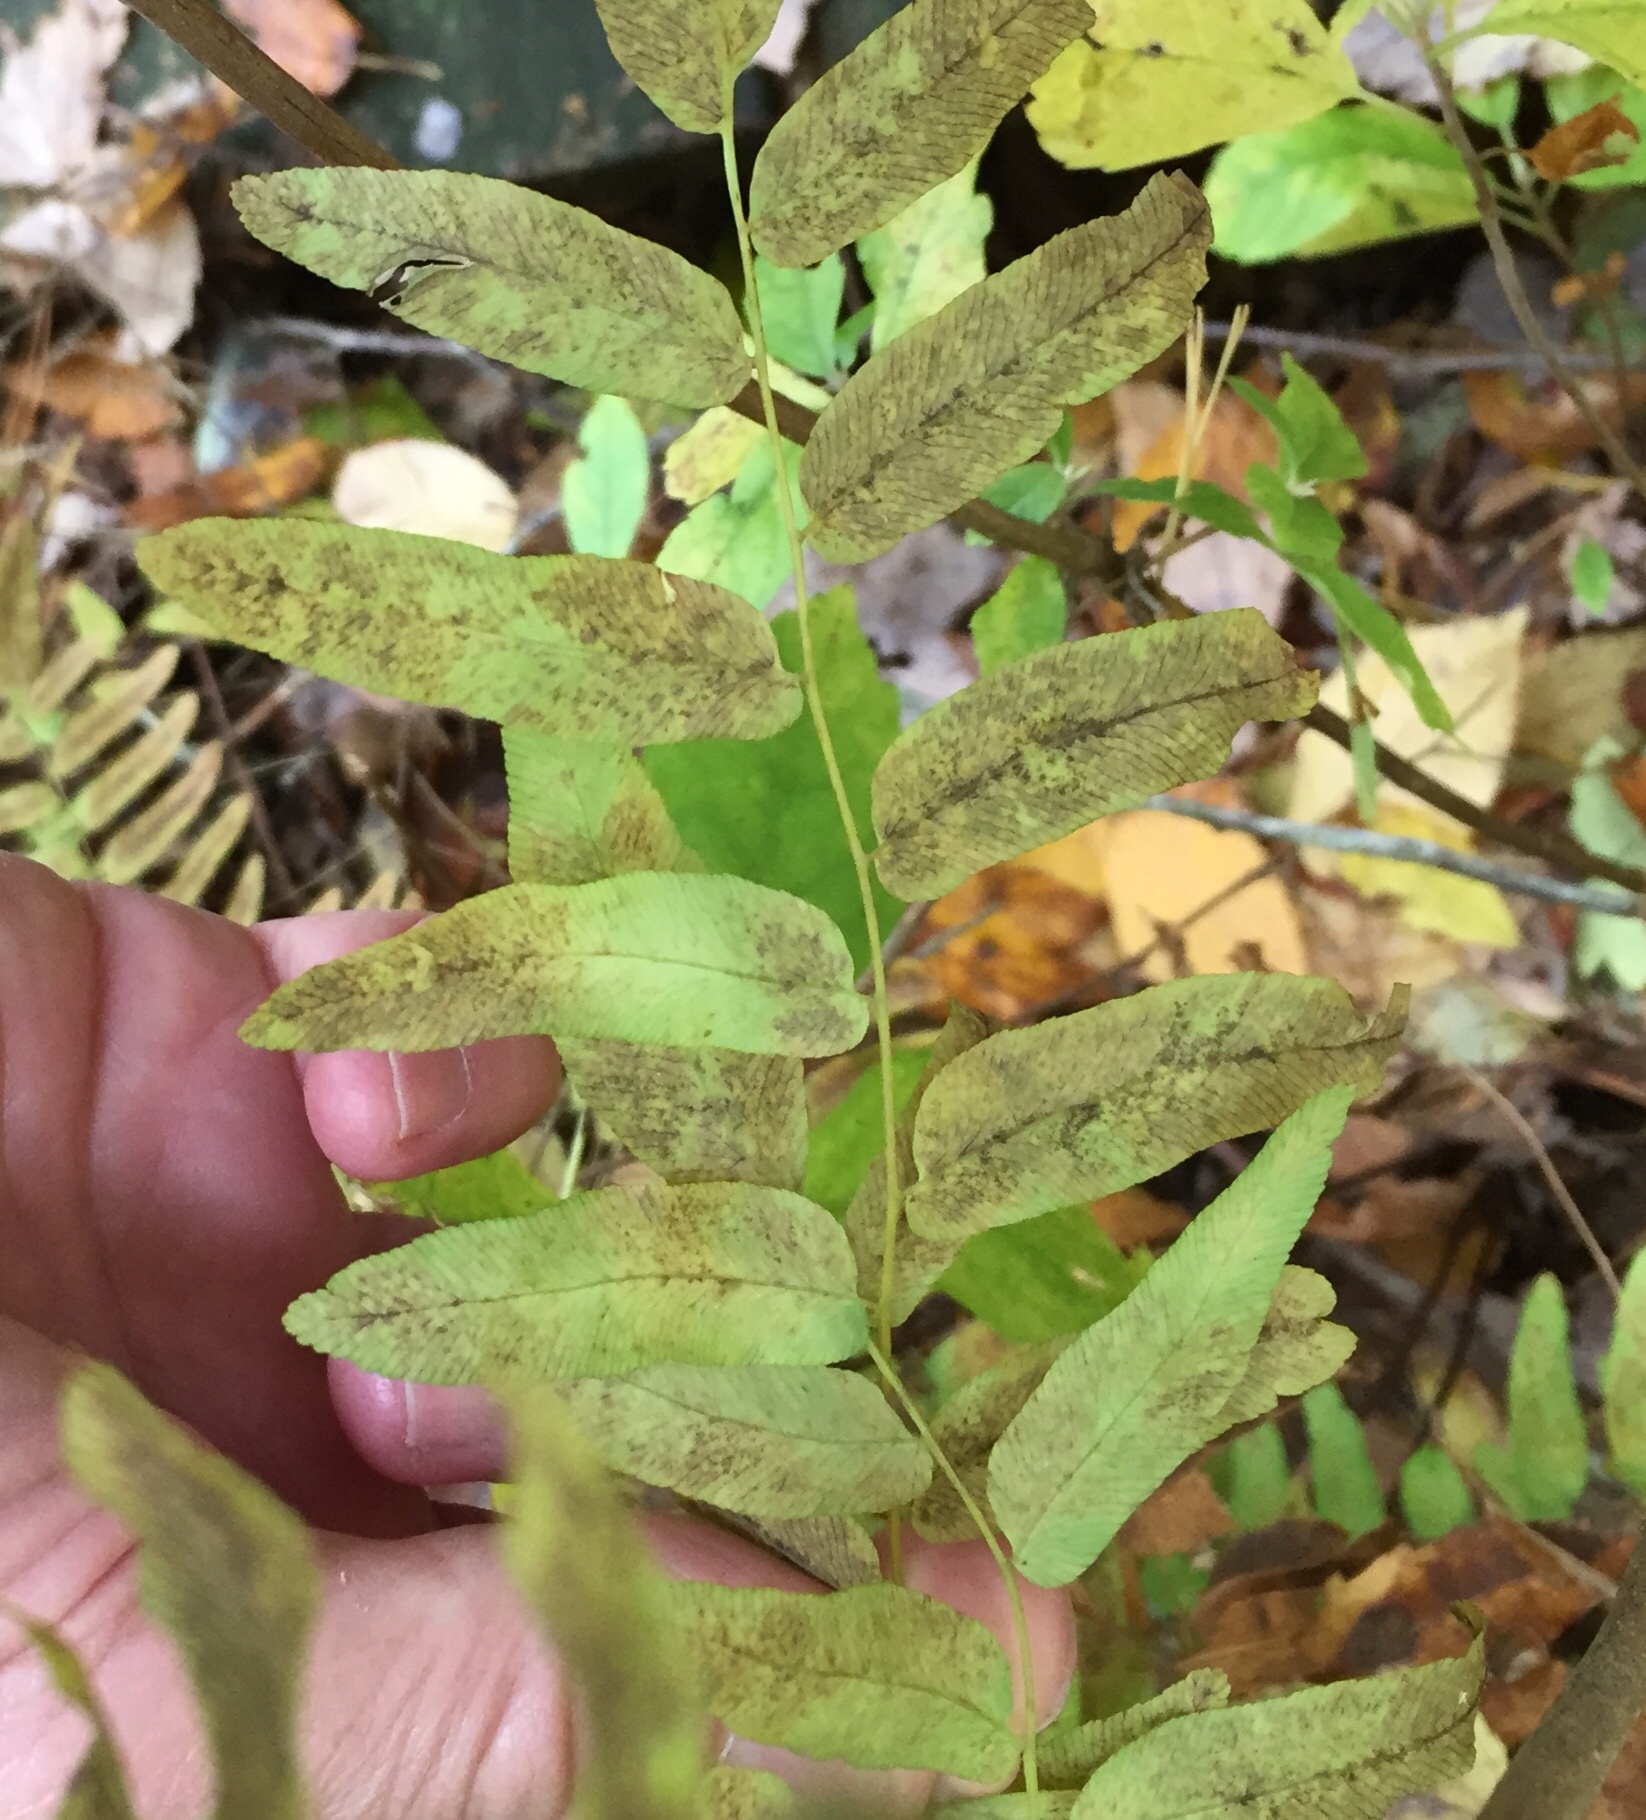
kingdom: Plantae
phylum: Tracheophyta
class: Polypodiopsida
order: Osmundales
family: Osmundaceae
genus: Osmunda
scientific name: Osmunda spectabilis
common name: American royal fern
